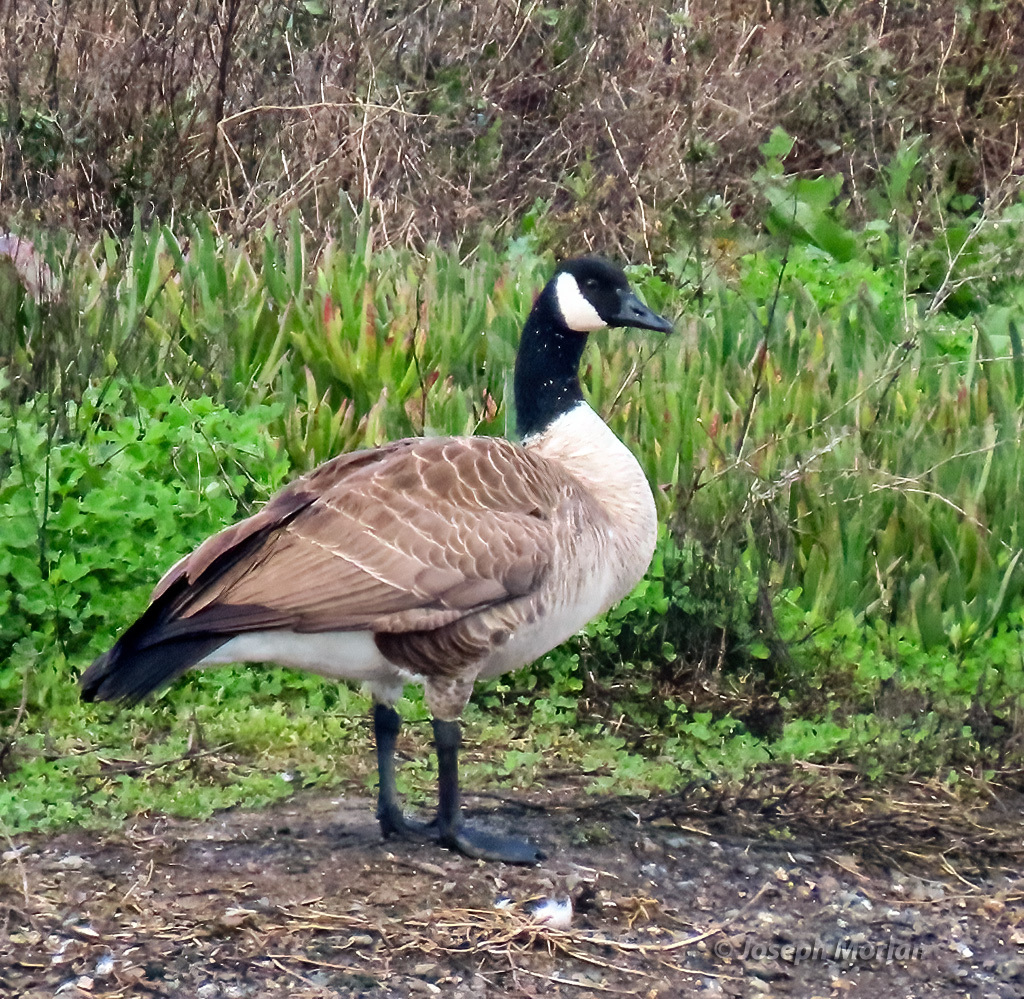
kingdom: Animalia
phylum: Chordata
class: Aves
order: Anseriformes
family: Anatidae
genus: Branta
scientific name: Branta canadensis
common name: Canada goose
